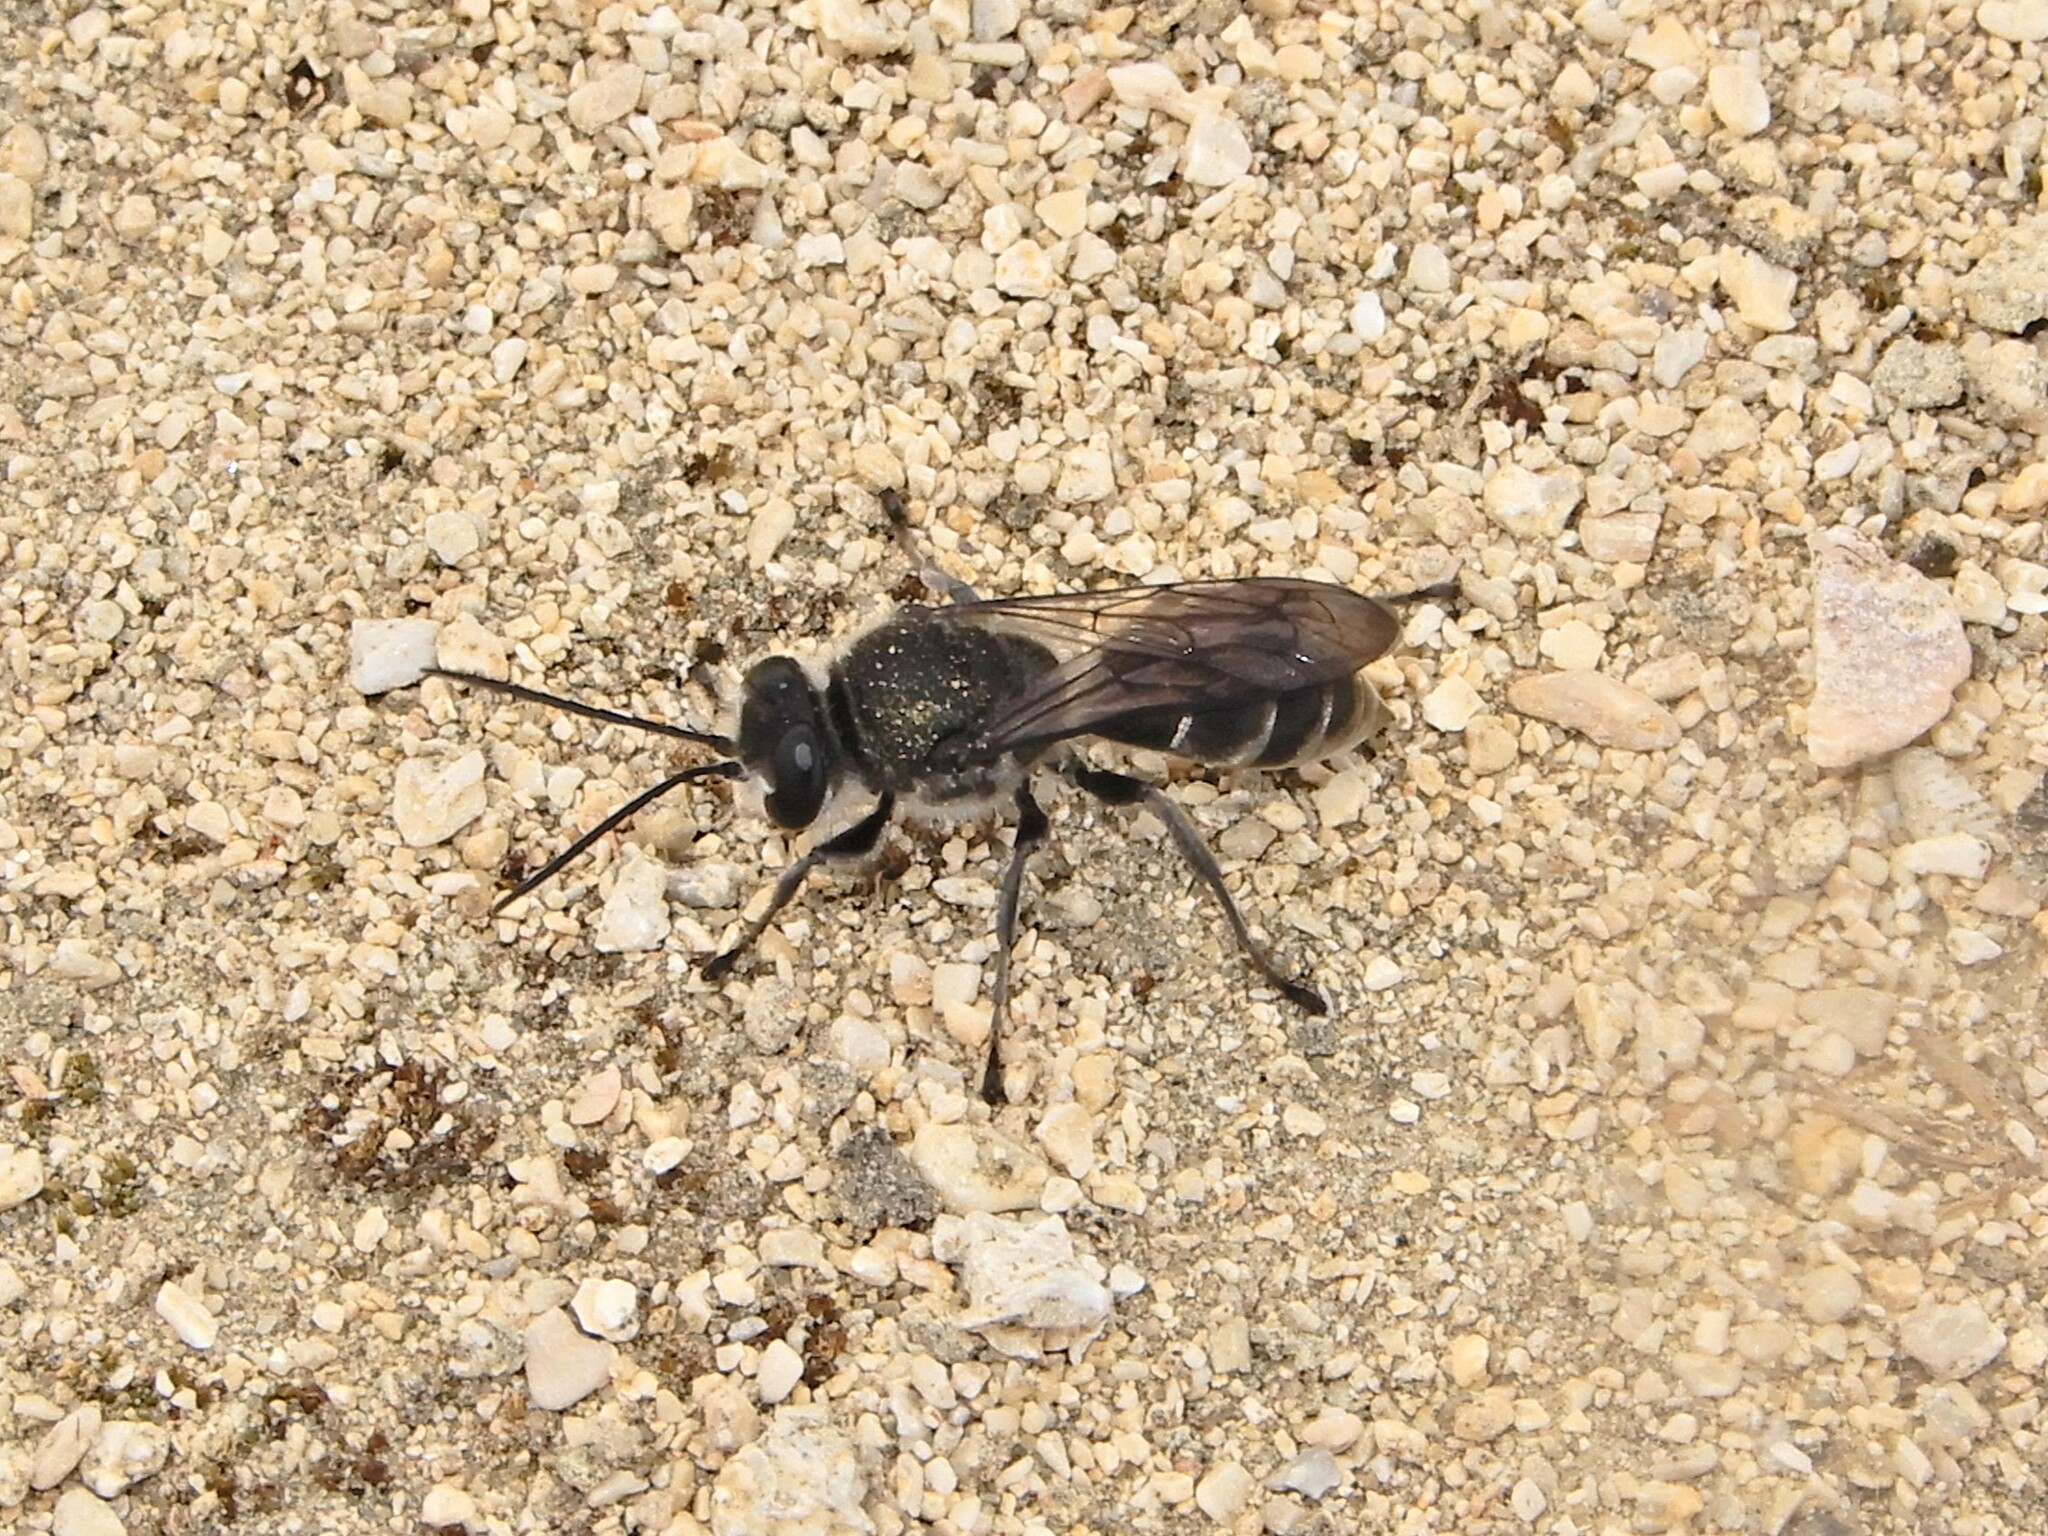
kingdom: Animalia
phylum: Arthropoda
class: Insecta
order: Hymenoptera
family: Crabronidae
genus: Pison
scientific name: Pison spinolae
